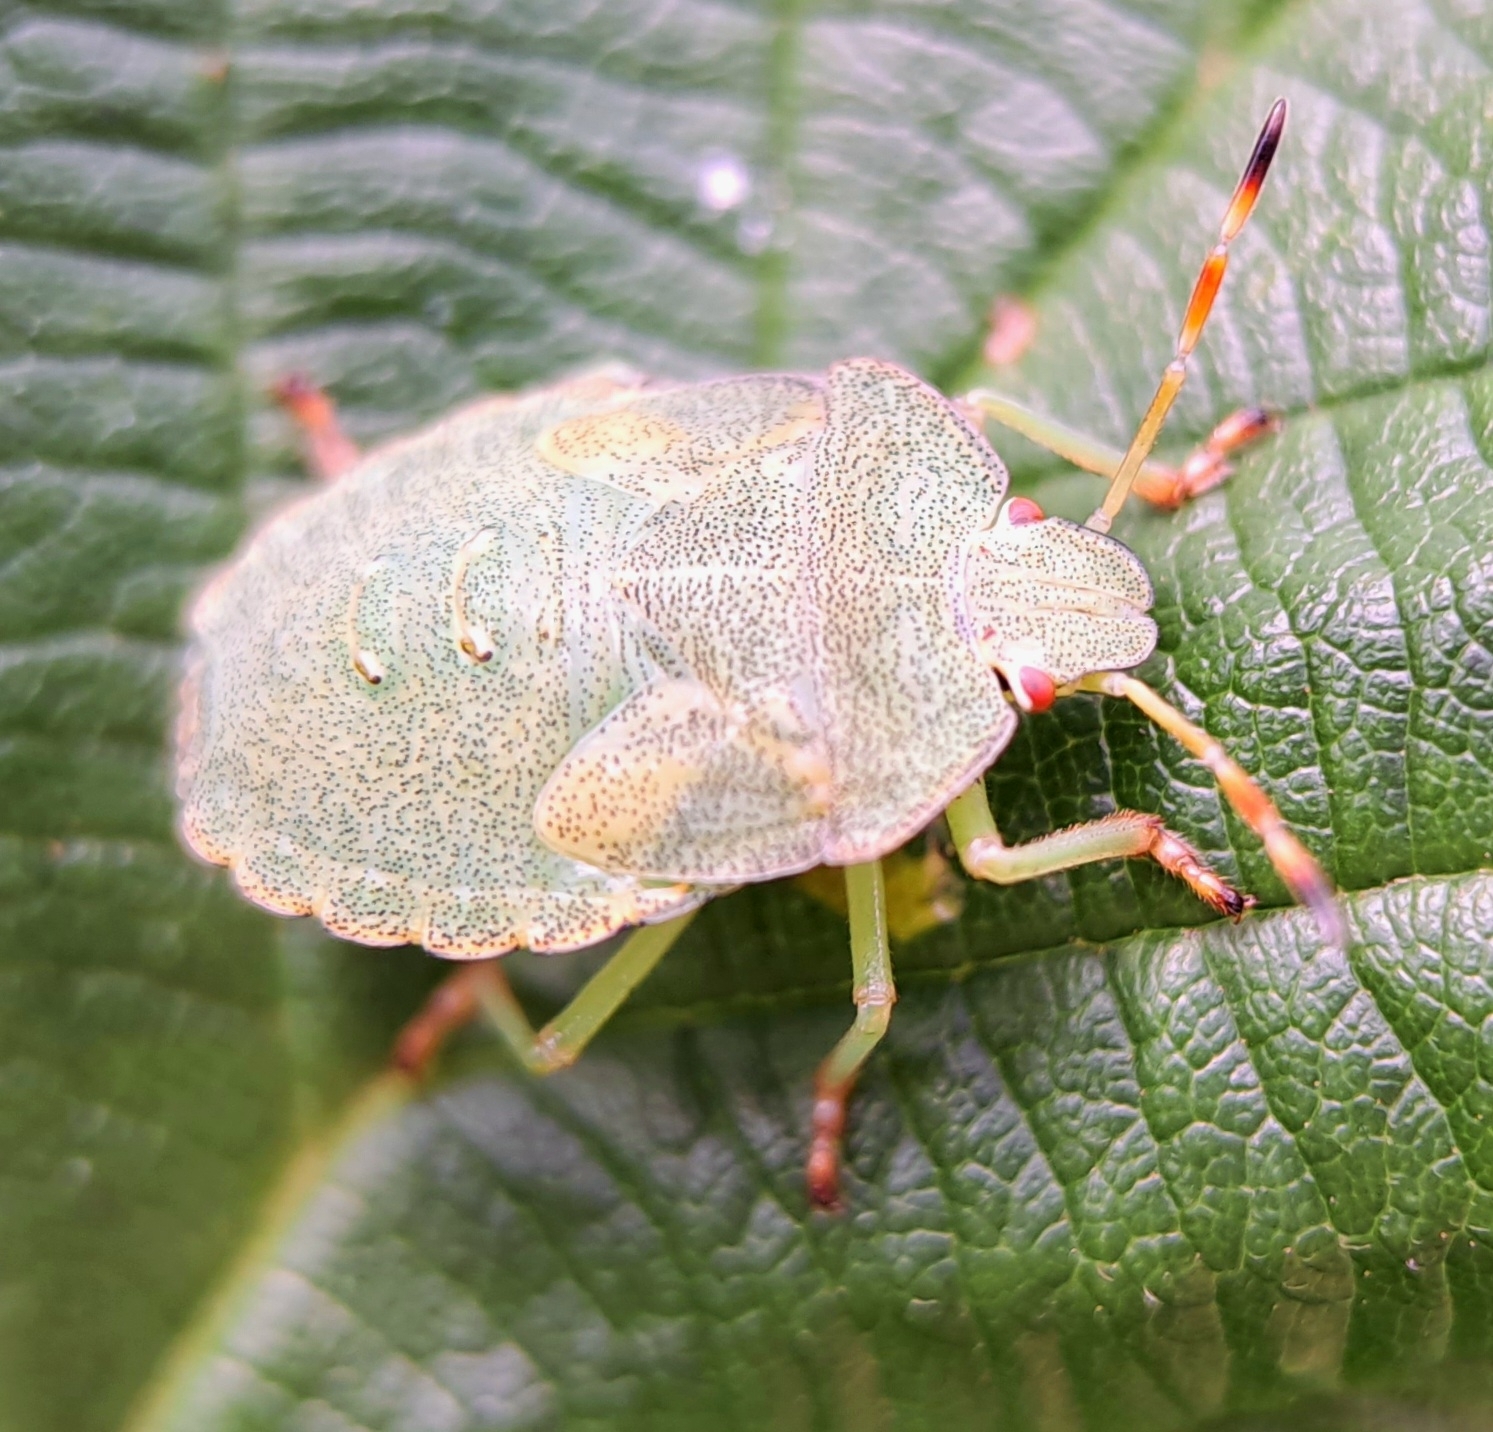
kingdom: Animalia
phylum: Arthropoda
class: Insecta
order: Hemiptera
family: Pentatomidae
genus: Palomena
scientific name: Palomena prasina
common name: Green shieldbug
